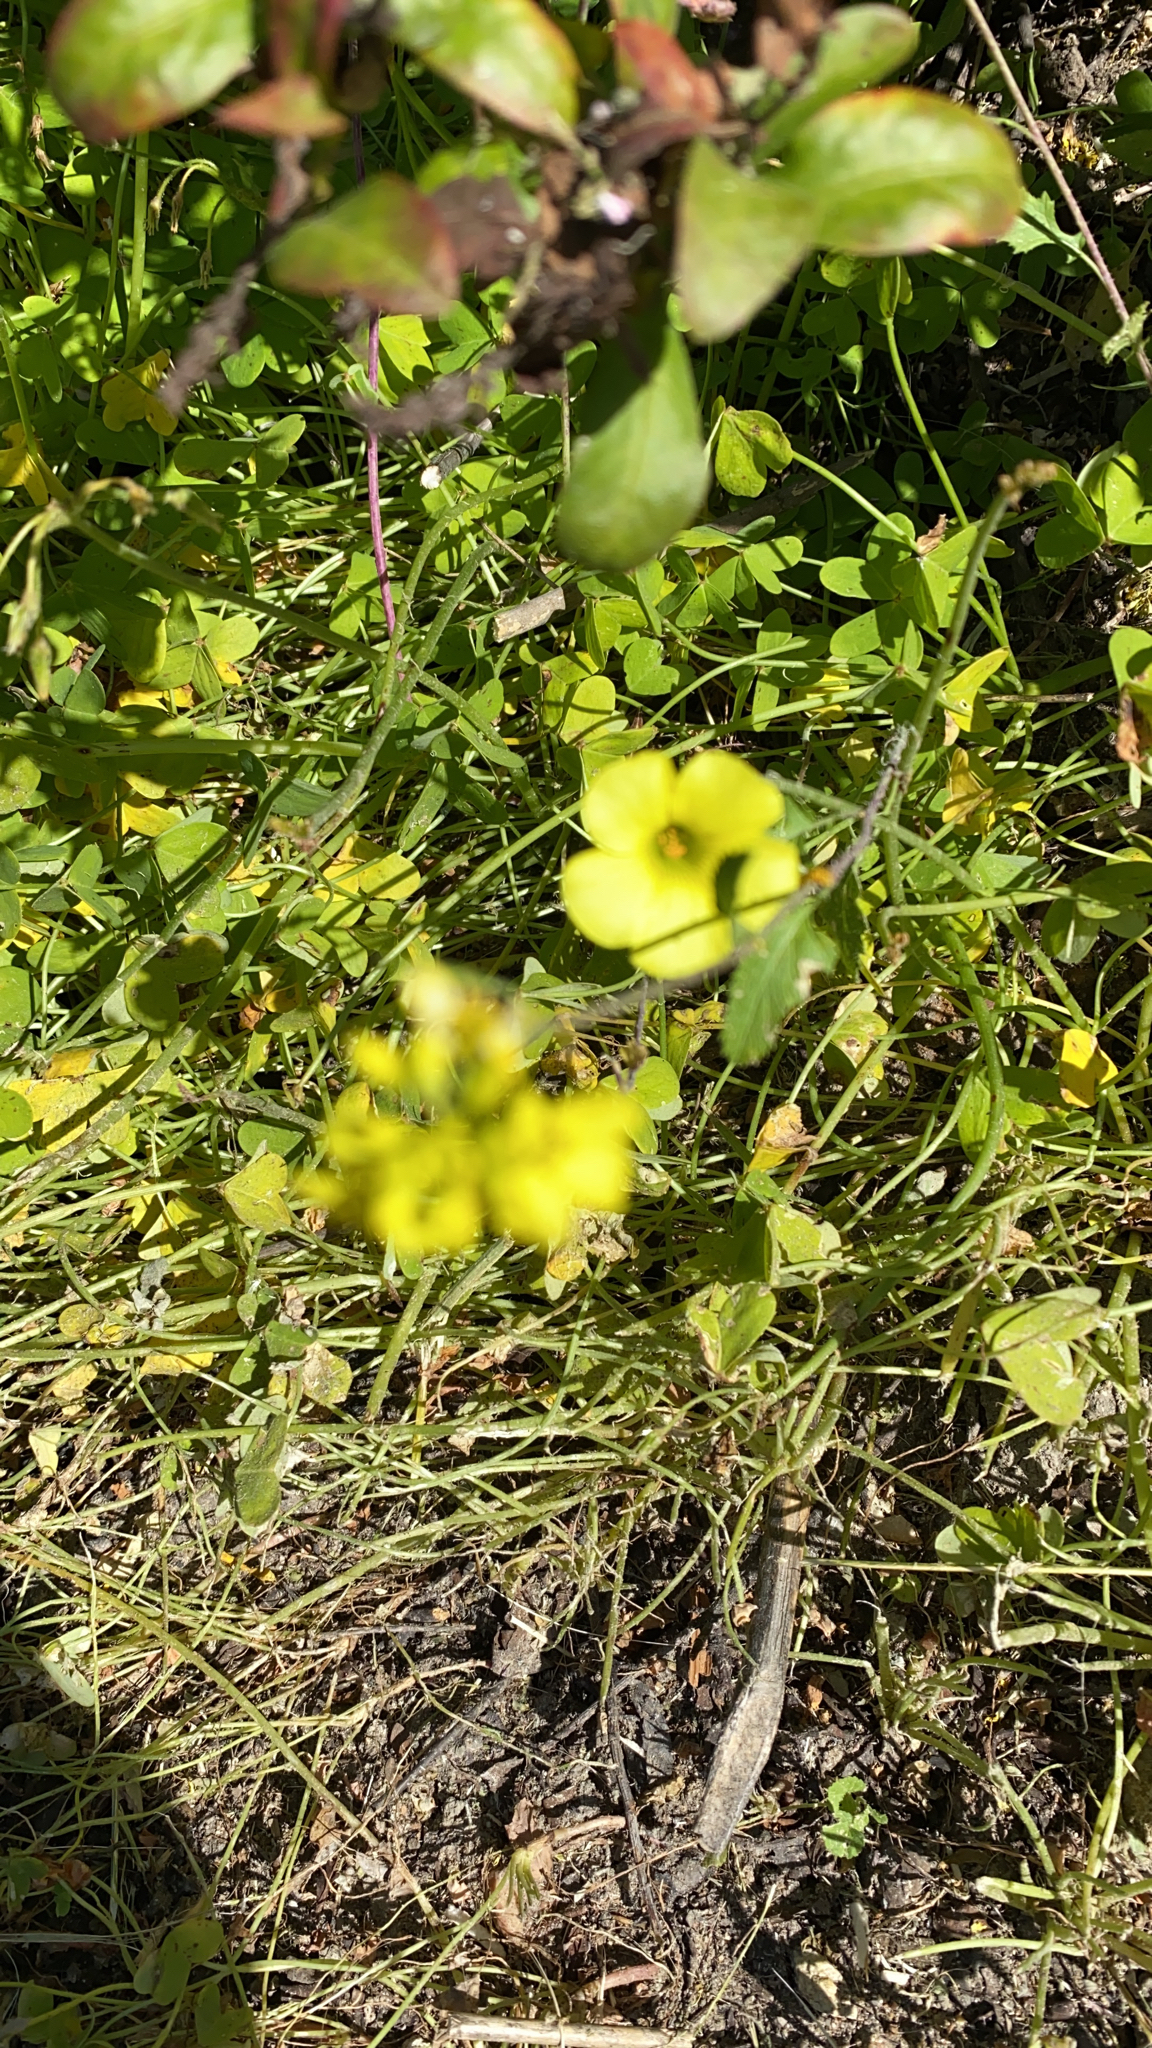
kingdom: Plantae
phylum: Tracheophyta
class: Magnoliopsida
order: Oxalidales
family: Oxalidaceae
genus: Oxalis
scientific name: Oxalis pes-caprae
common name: Bermuda-buttercup
